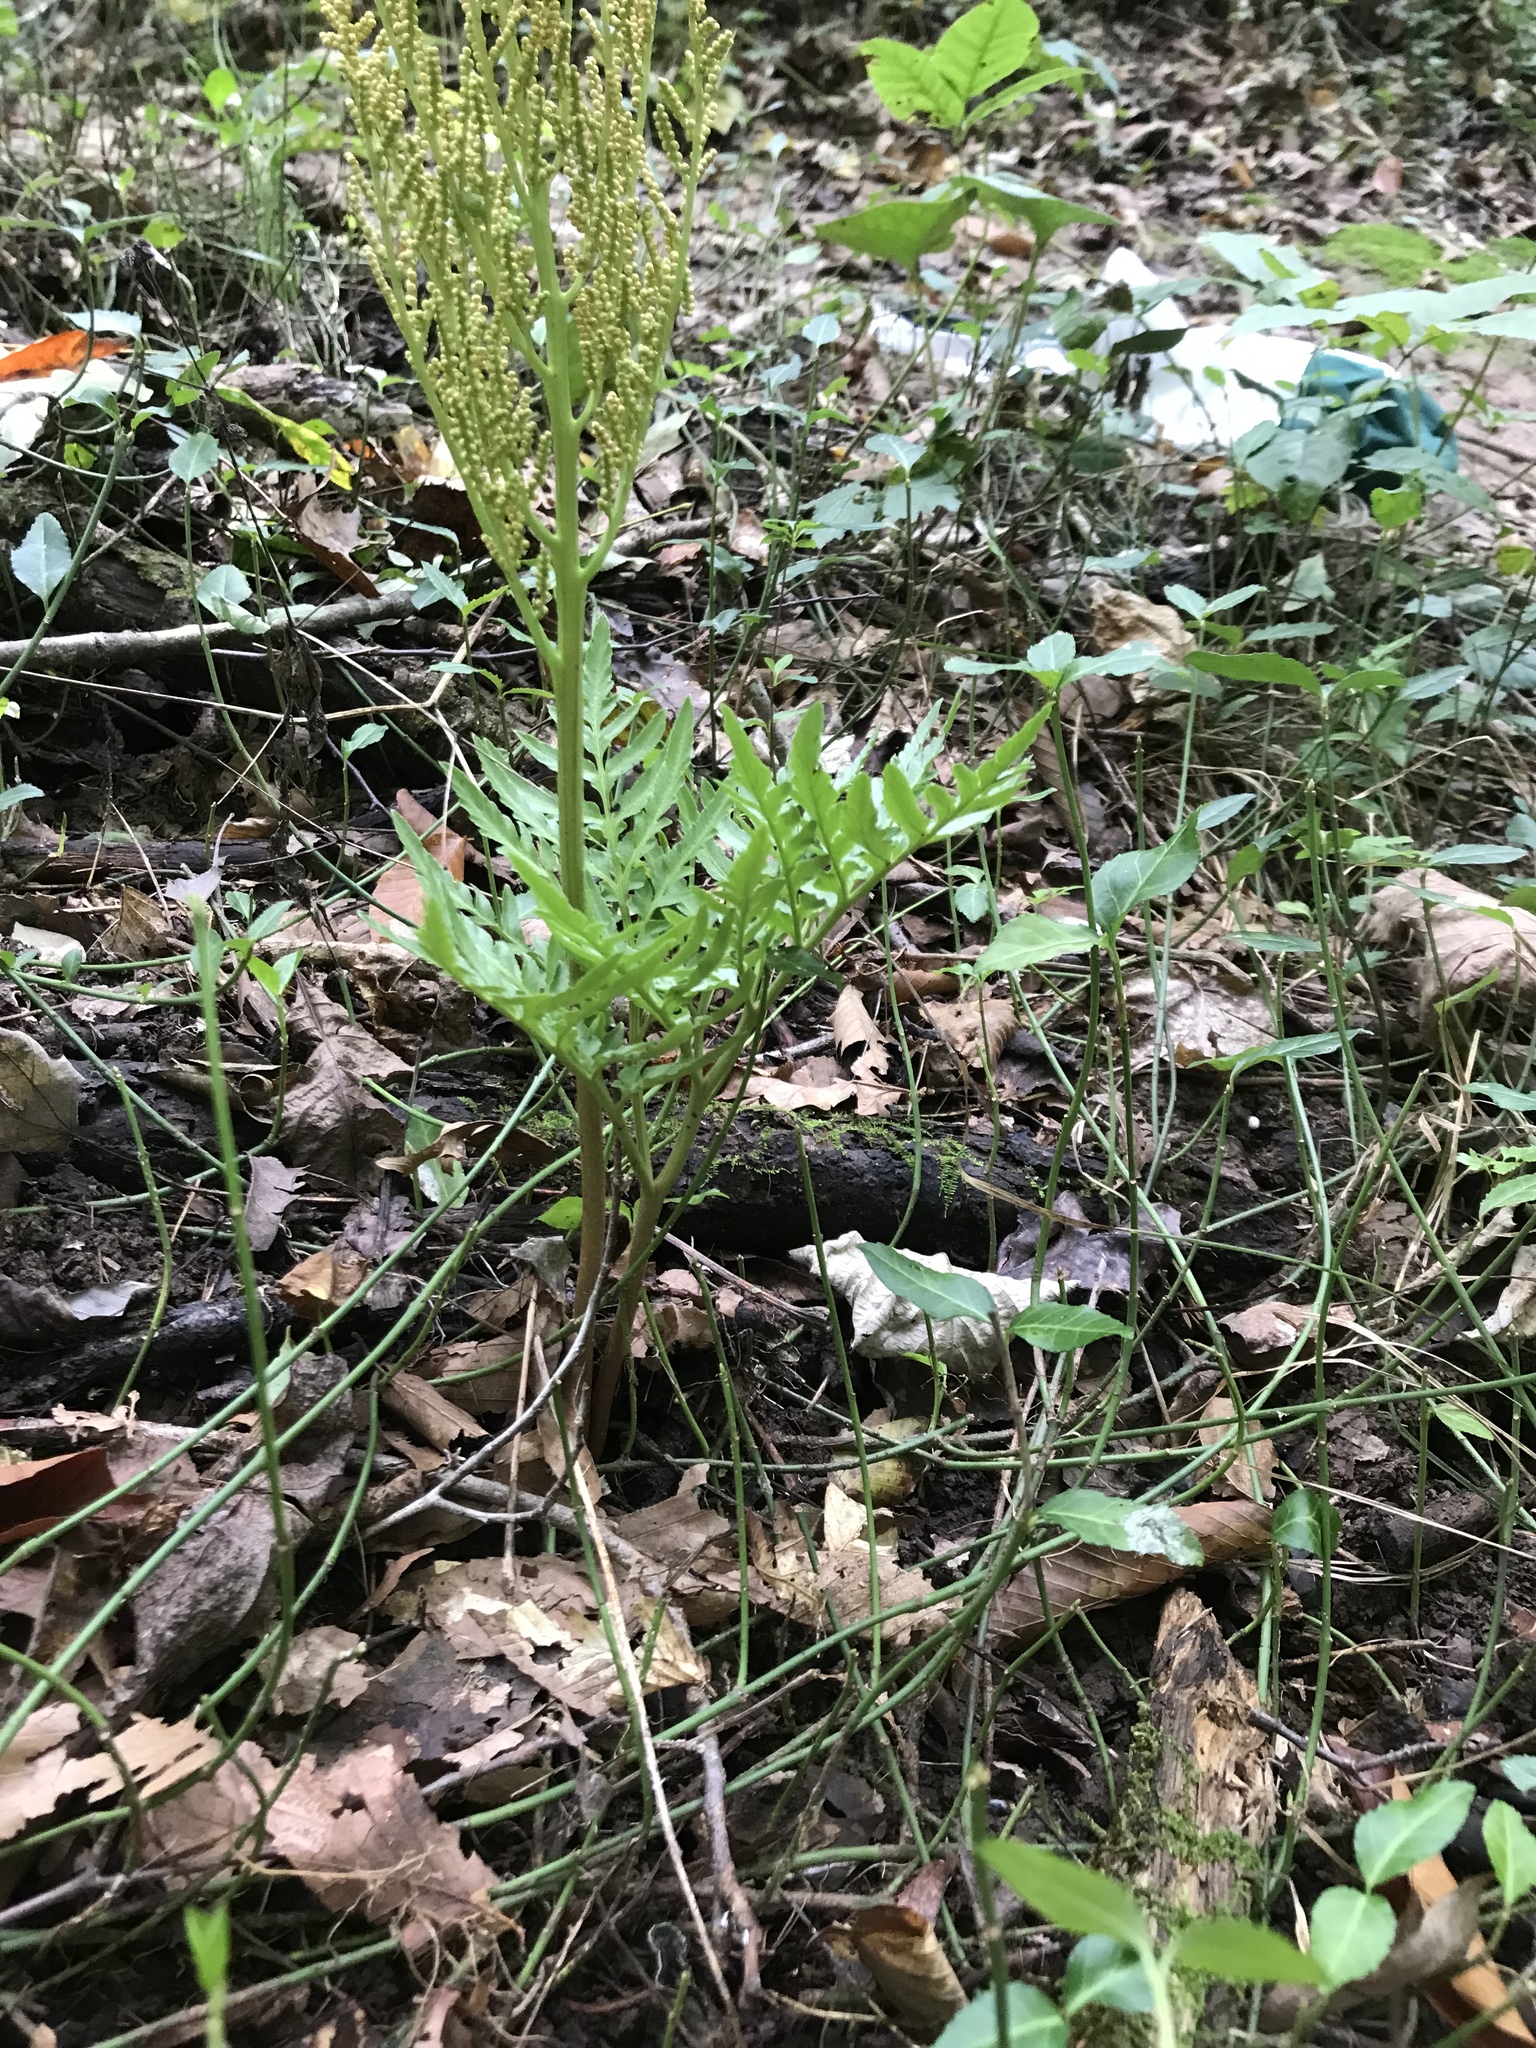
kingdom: Plantae
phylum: Tracheophyta
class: Polypodiopsida
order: Ophioglossales
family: Ophioglossaceae
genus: Sceptridium
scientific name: Sceptridium dissectum
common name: Cut-leaved grapefern
